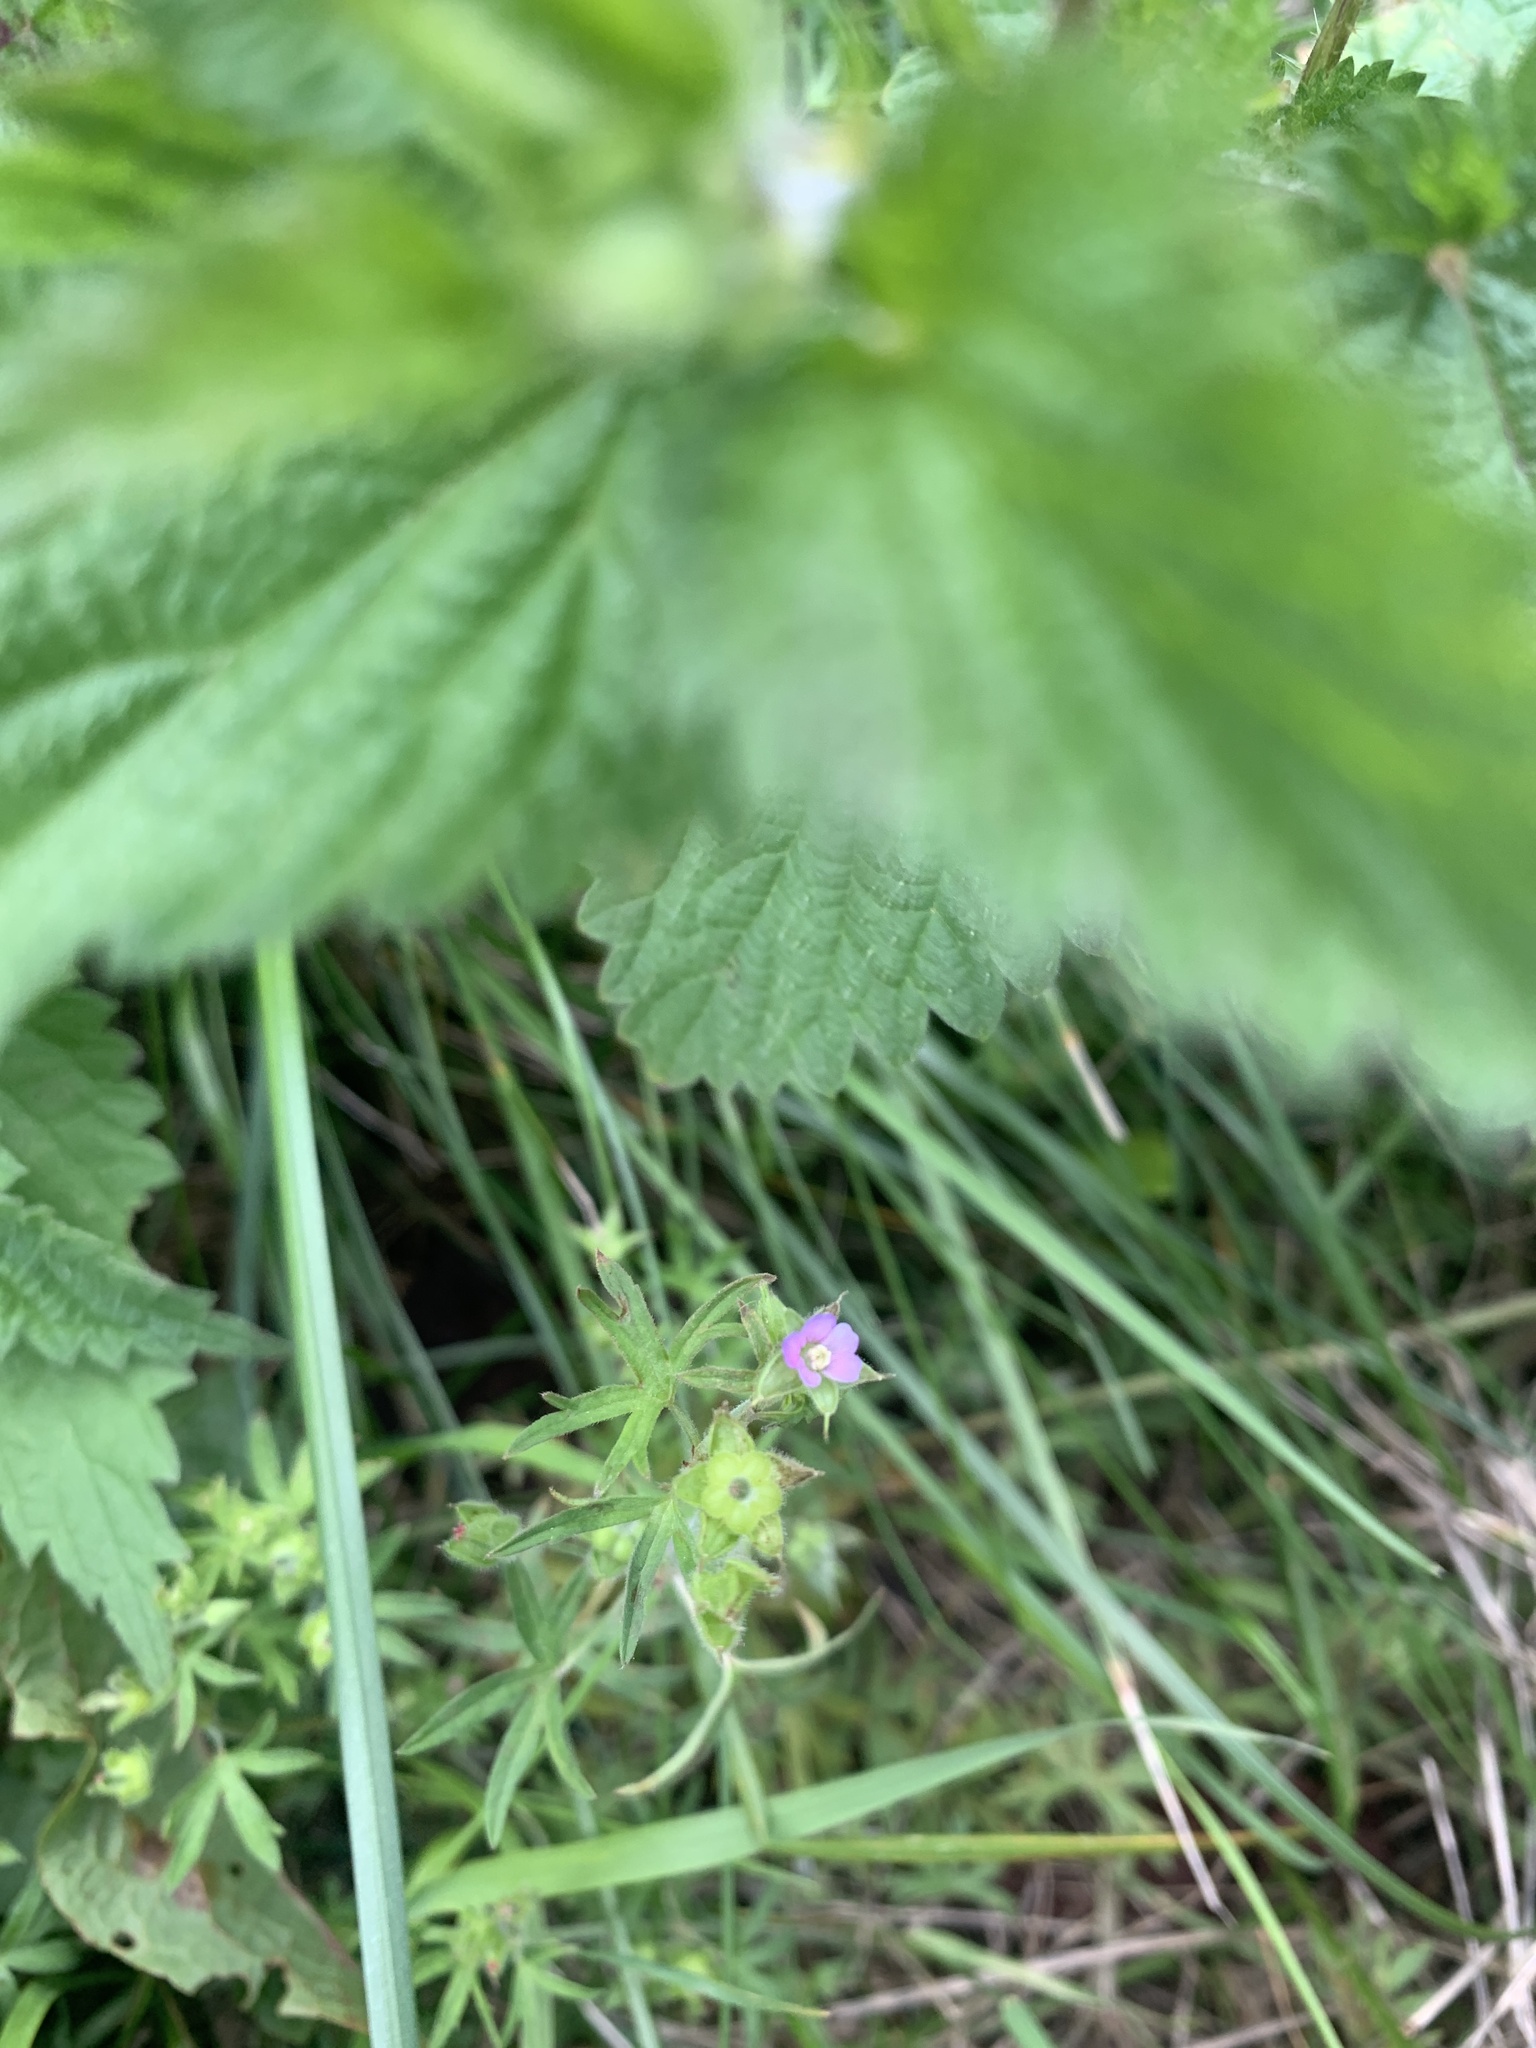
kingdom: Plantae
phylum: Tracheophyta
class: Magnoliopsida
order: Geraniales
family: Geraniaceae
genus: Geranium
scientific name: Geranium dissectum
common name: Cut-leaved crane's-bill
